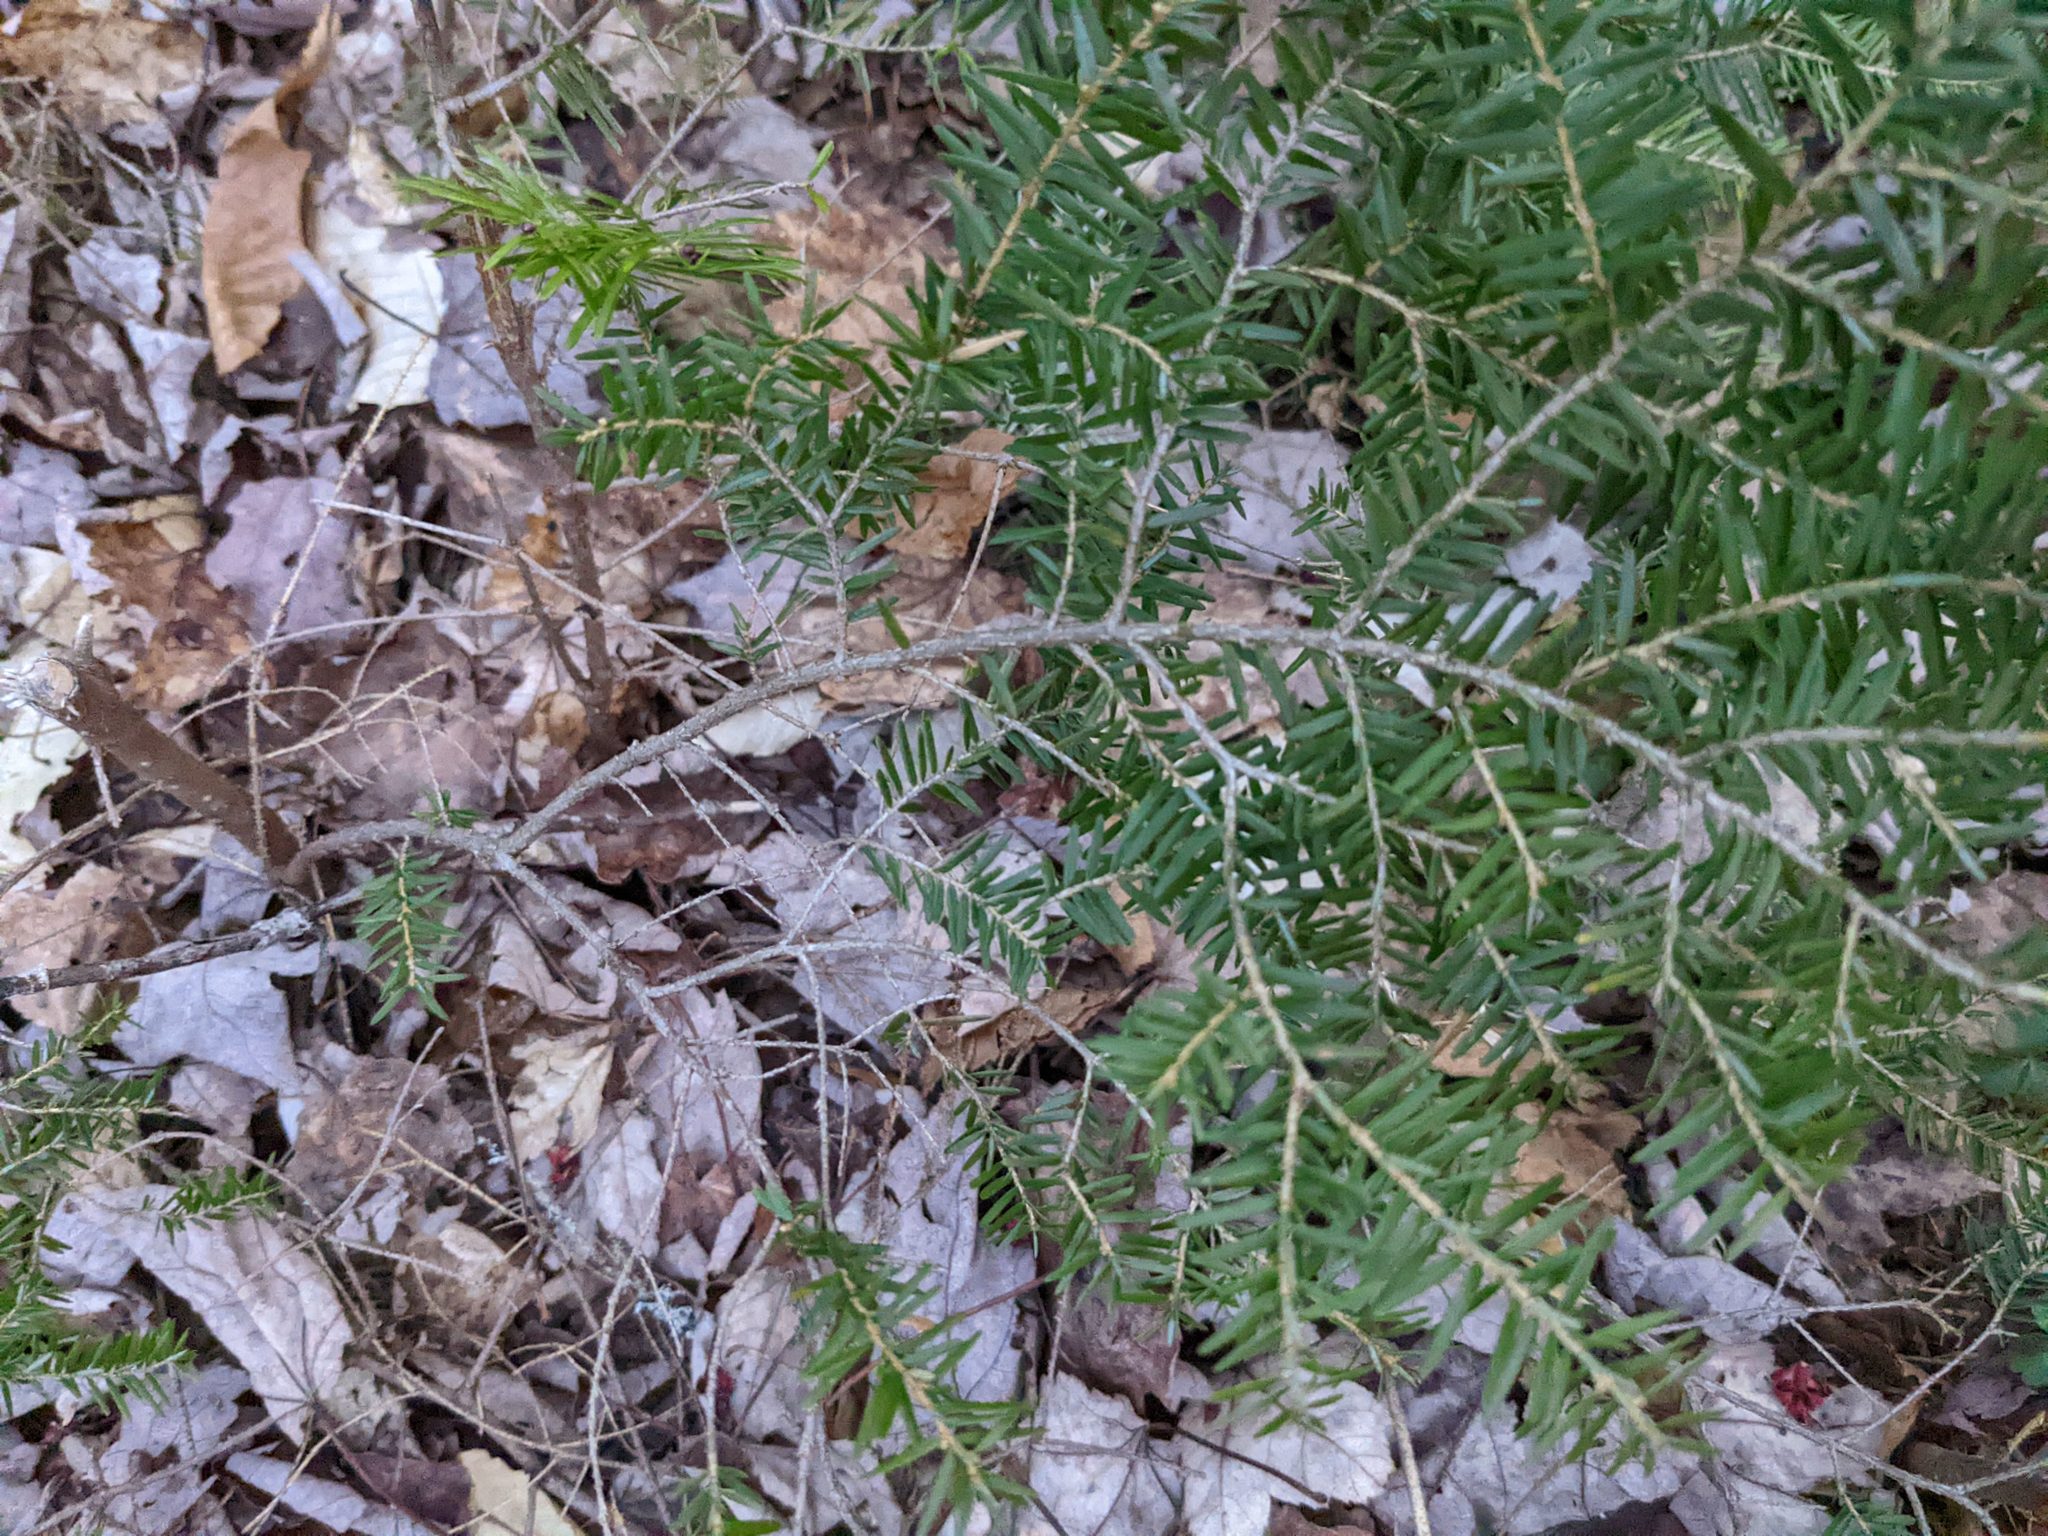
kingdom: Plantae
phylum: Tracheophyta
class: Pinopsida
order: Pinales
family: Pinaceae
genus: Tsuga
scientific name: Tsuga canadensis
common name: Eastern hemlock
